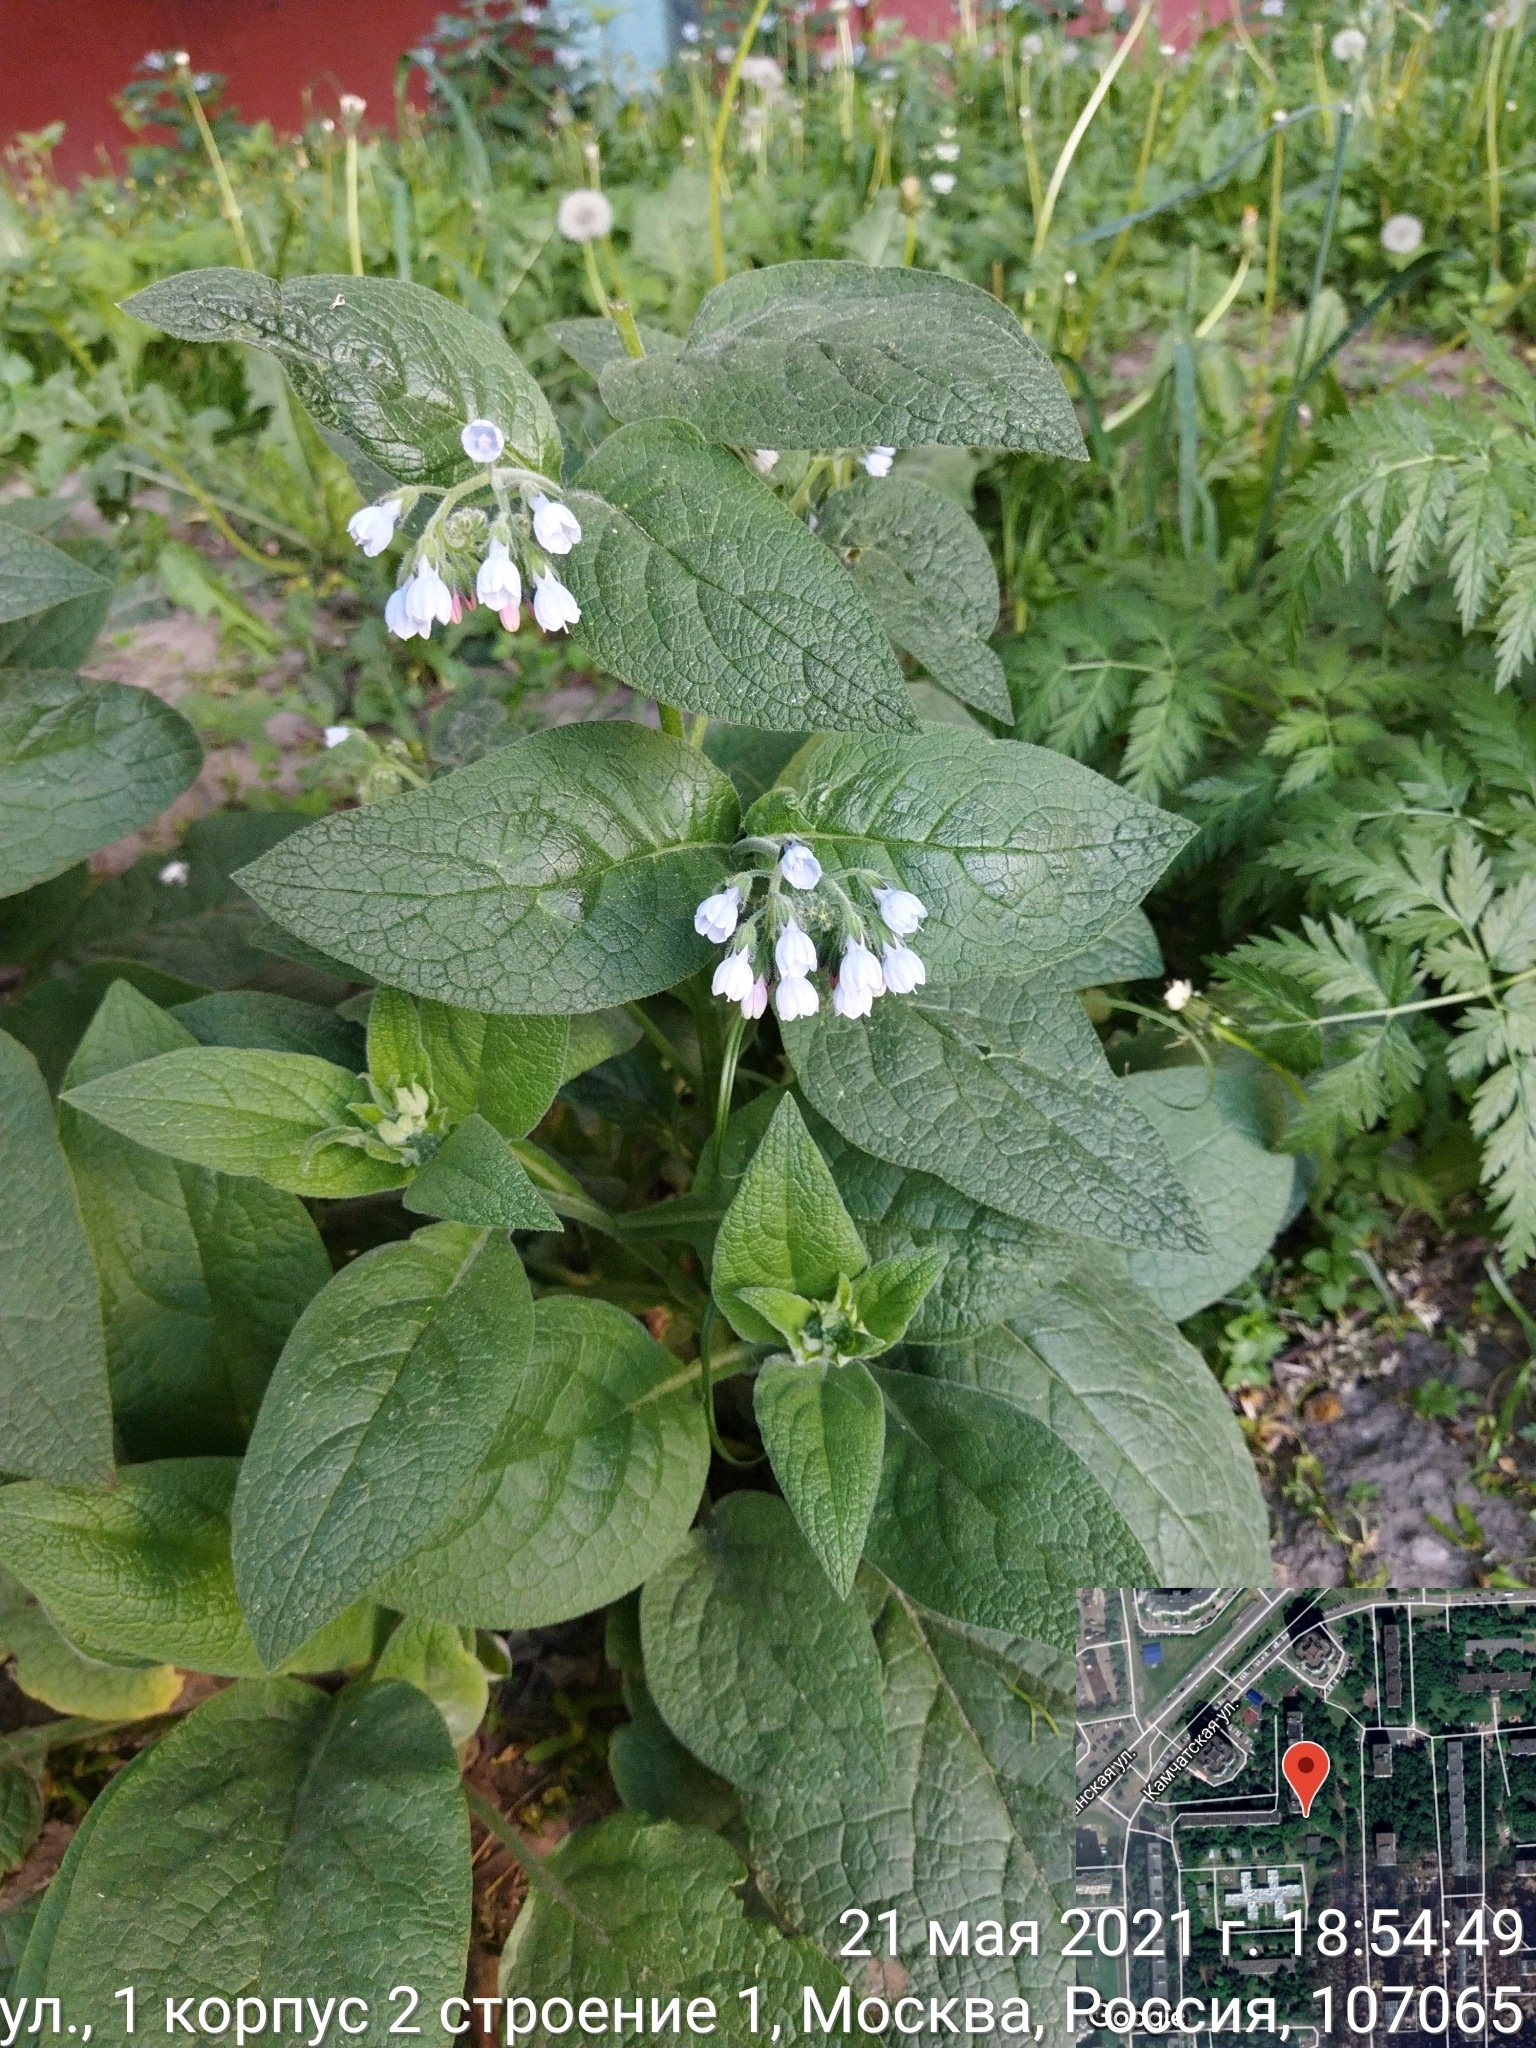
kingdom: Plantae
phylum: Tracheophyta
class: Magnoliopsida
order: Boraginales
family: Boraginaceae
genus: Symphytum
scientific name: Symphytum caucasicum
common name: Caucasian comfrey
